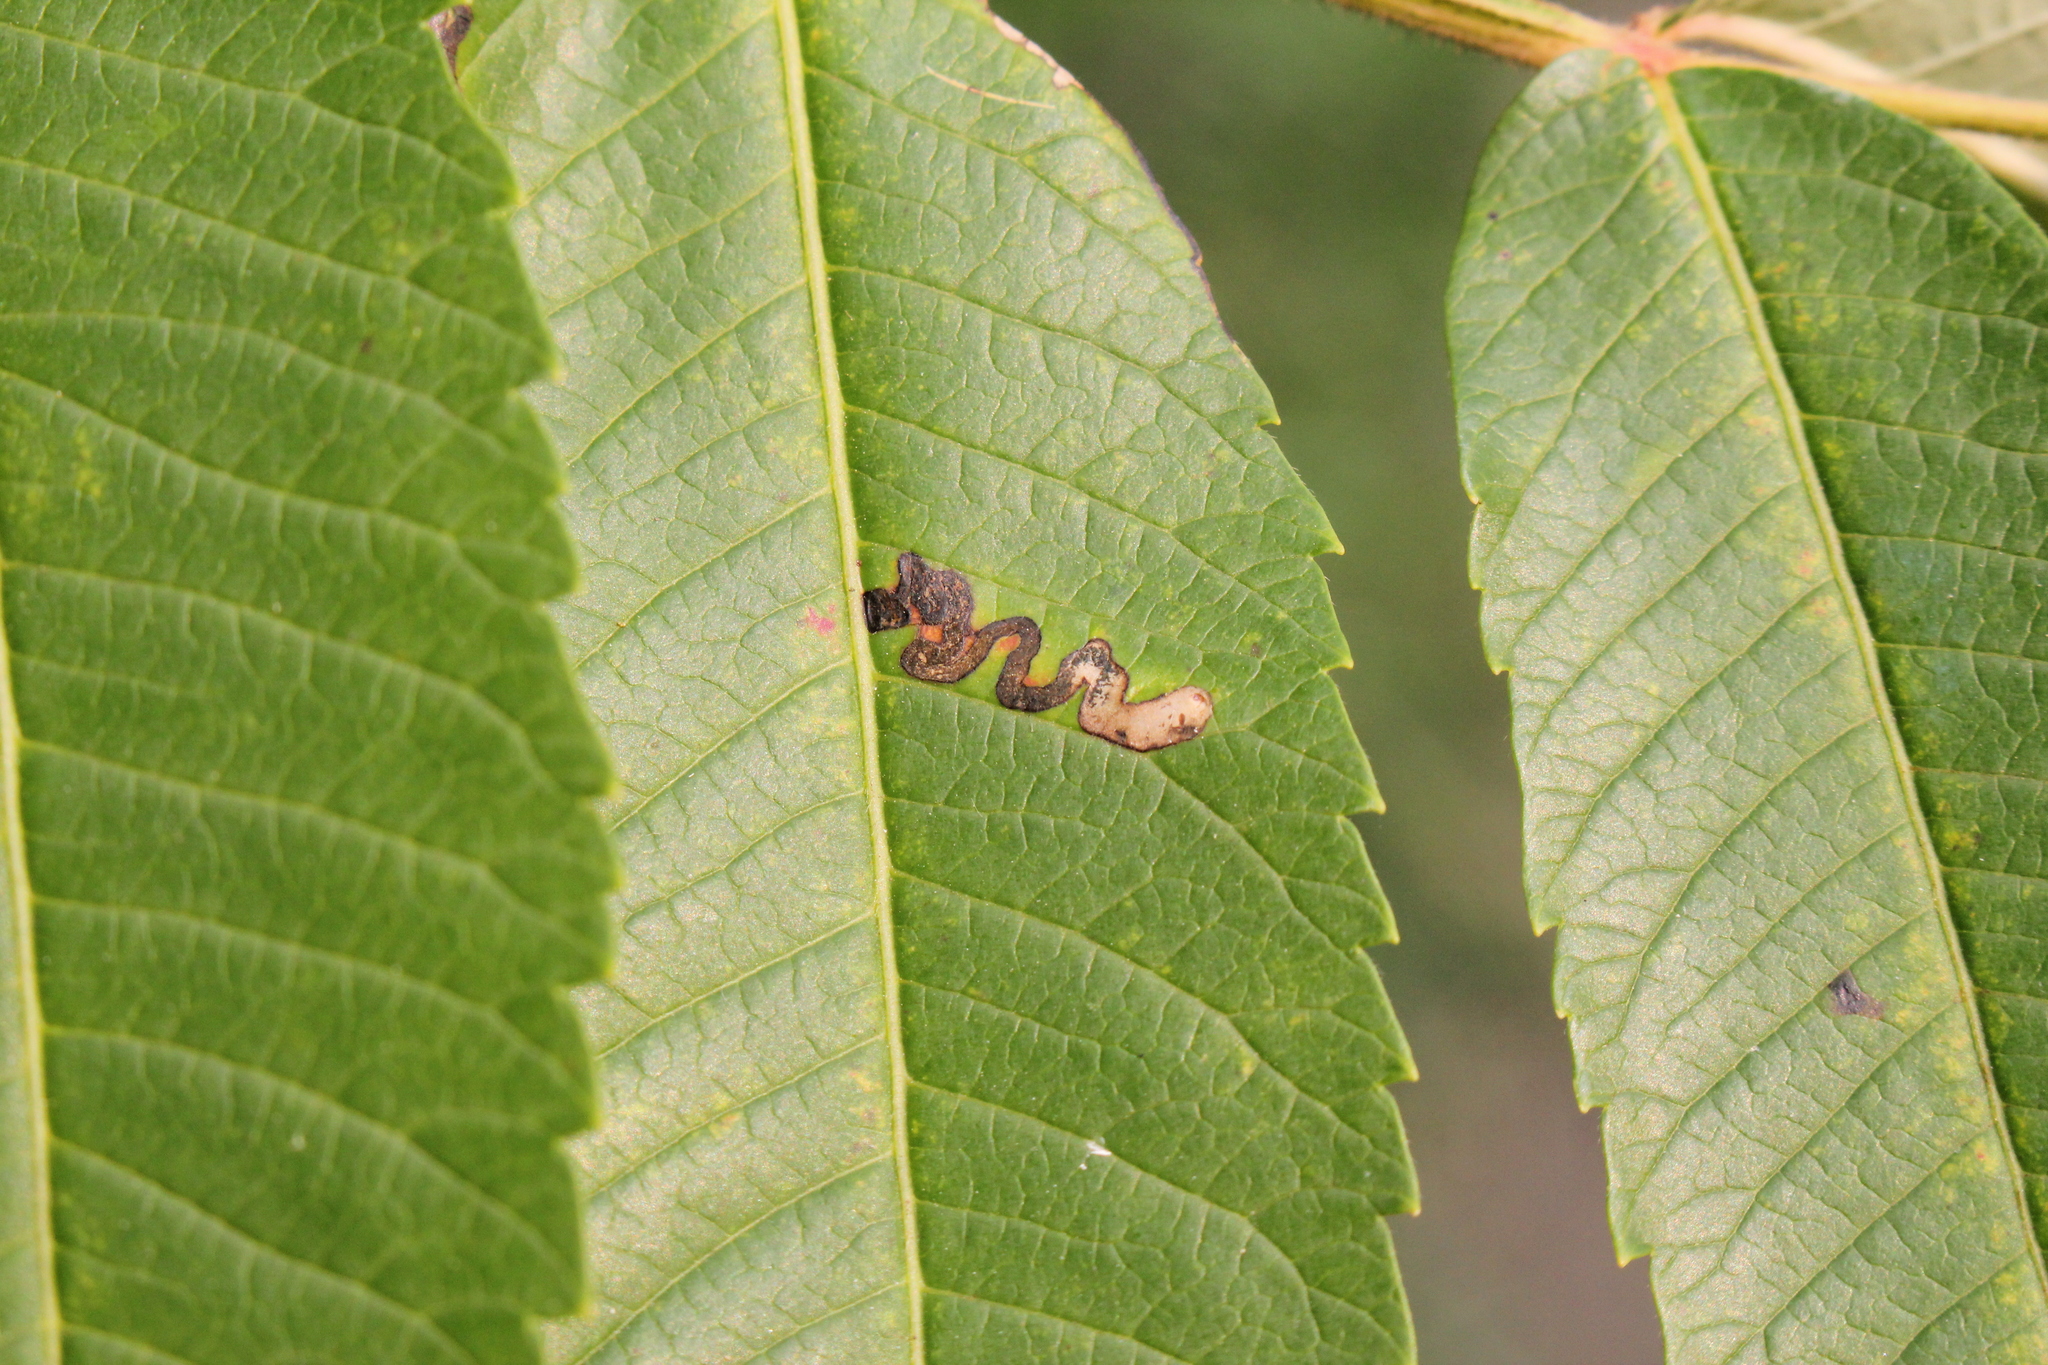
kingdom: Animalia
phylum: Arthropoda
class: Insecta
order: Lepidoptera
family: Nepticulidae
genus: Stigmella
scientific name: Stigmella intermedia
